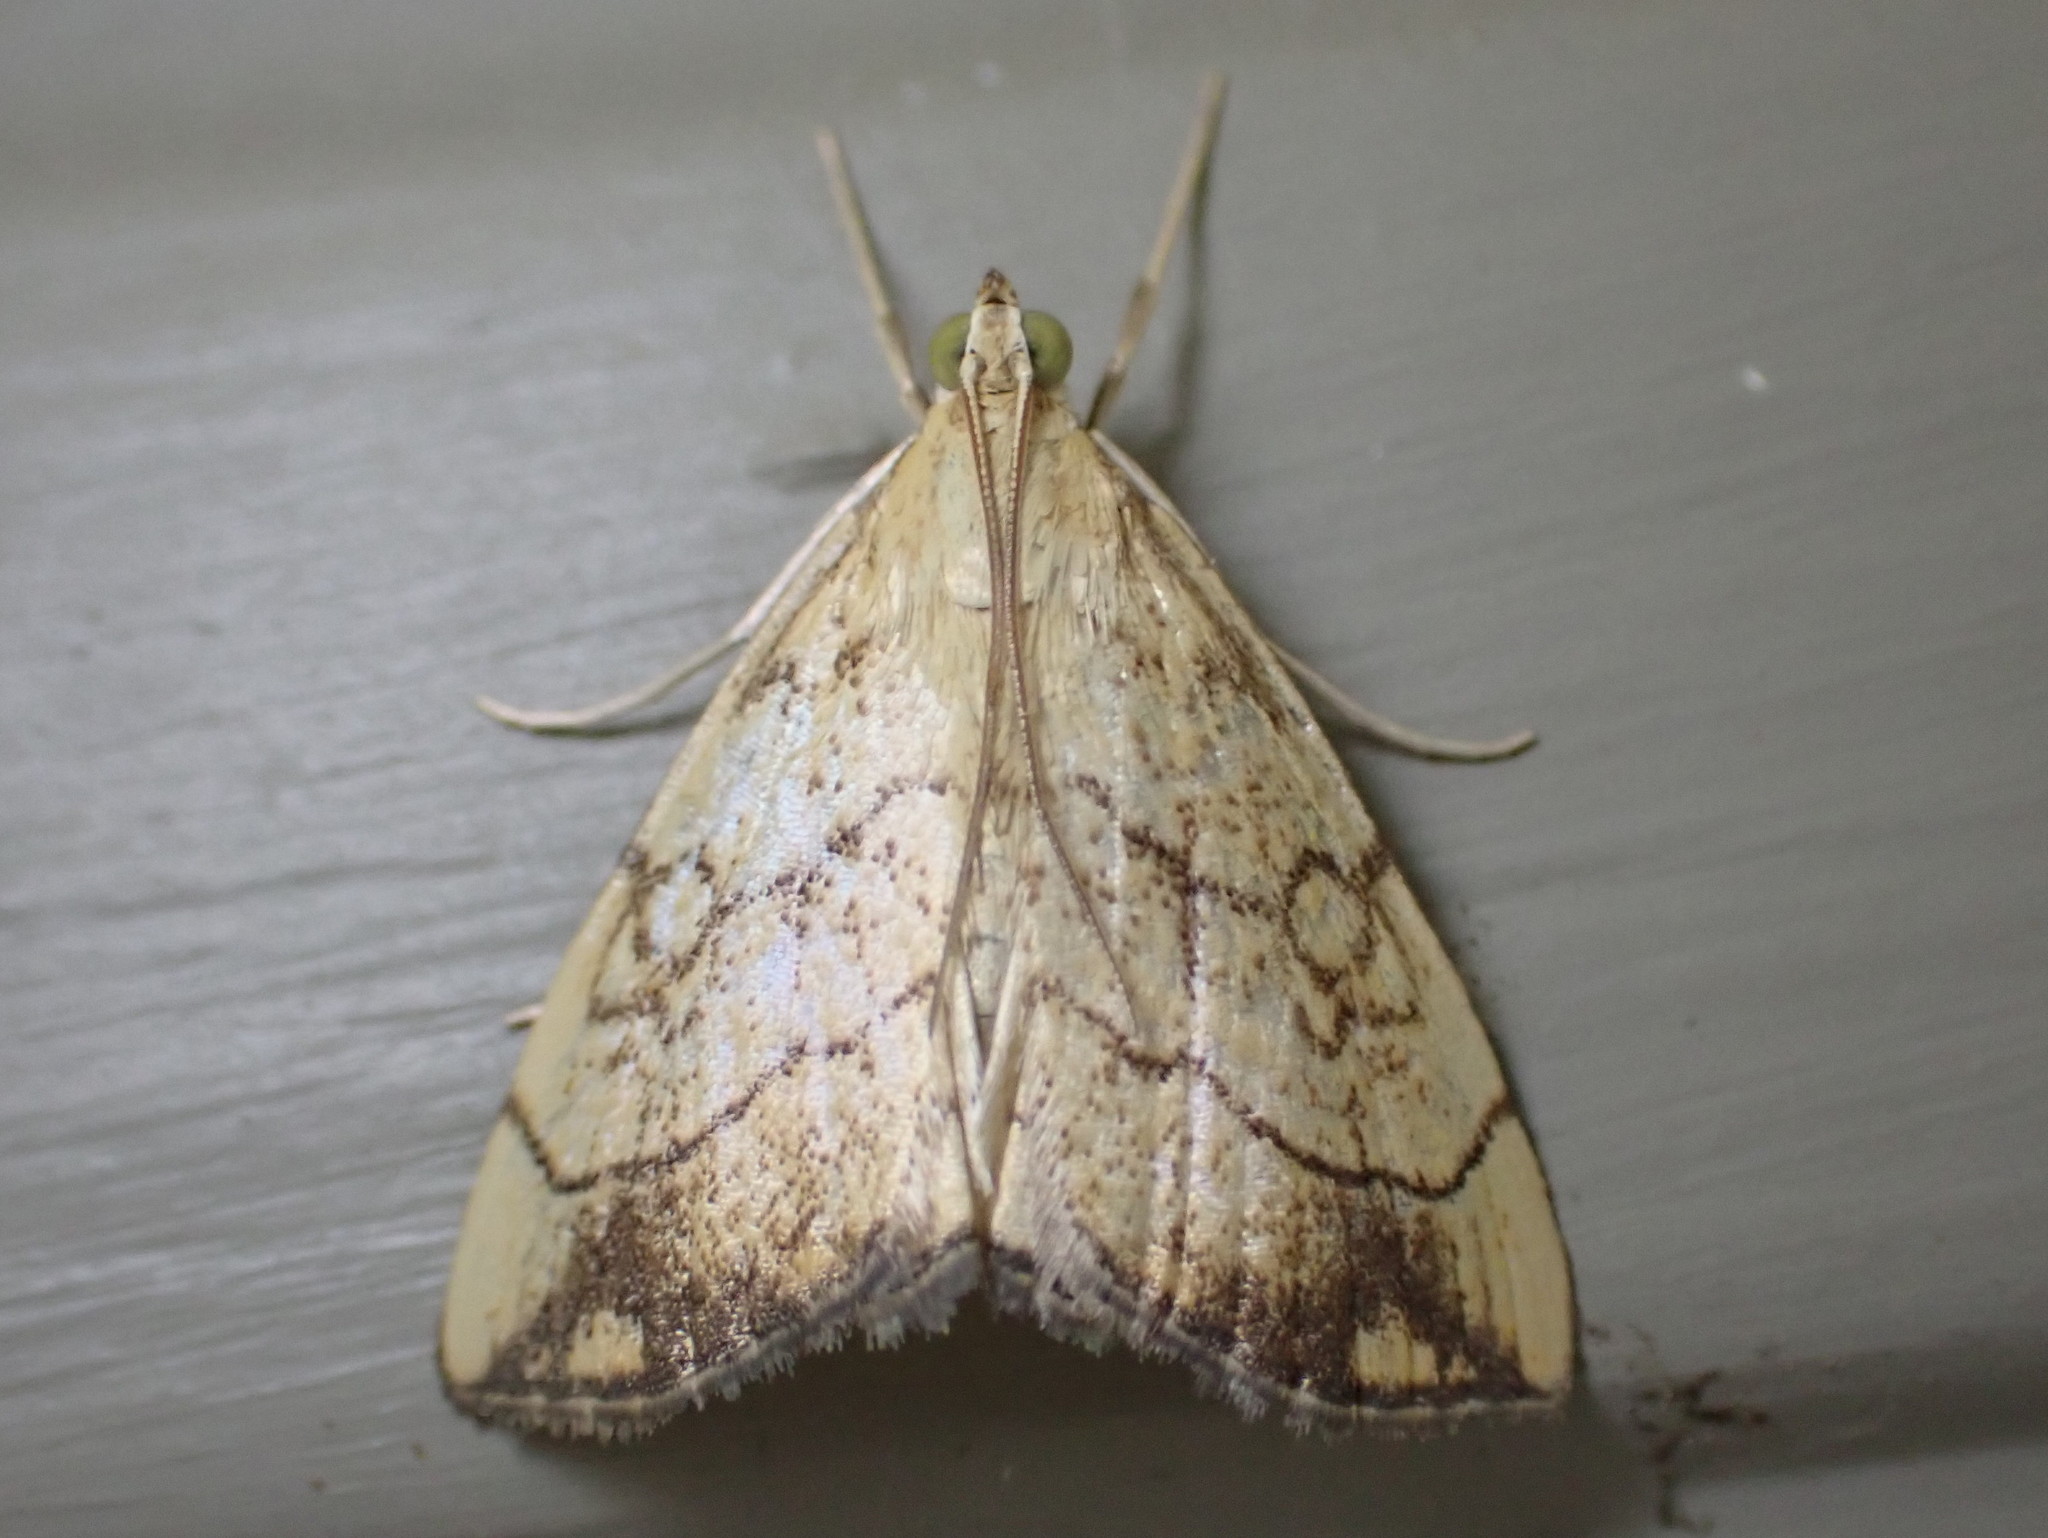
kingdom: Animalia
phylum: Arthropoda
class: Insecta
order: Lepidoptera
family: Crambidae
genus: Evergestis
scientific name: Evergestis pallidata
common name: Chequered pearl
